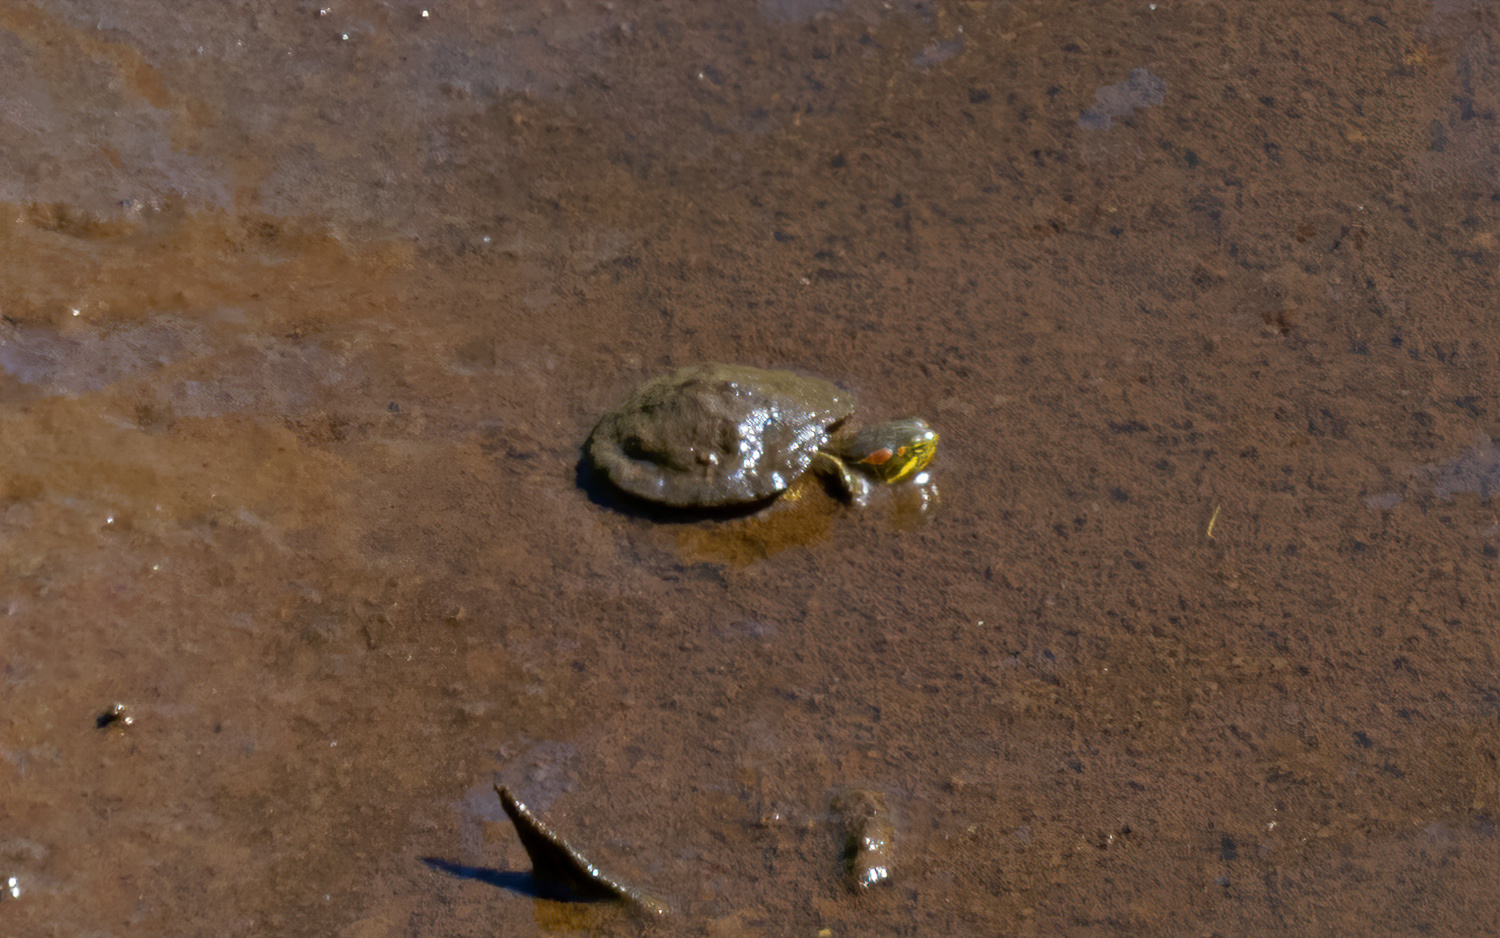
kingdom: Animalia
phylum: Chordata
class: Testudines
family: Emydidae
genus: Trachemys
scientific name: Trachemys scripta
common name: Slider
